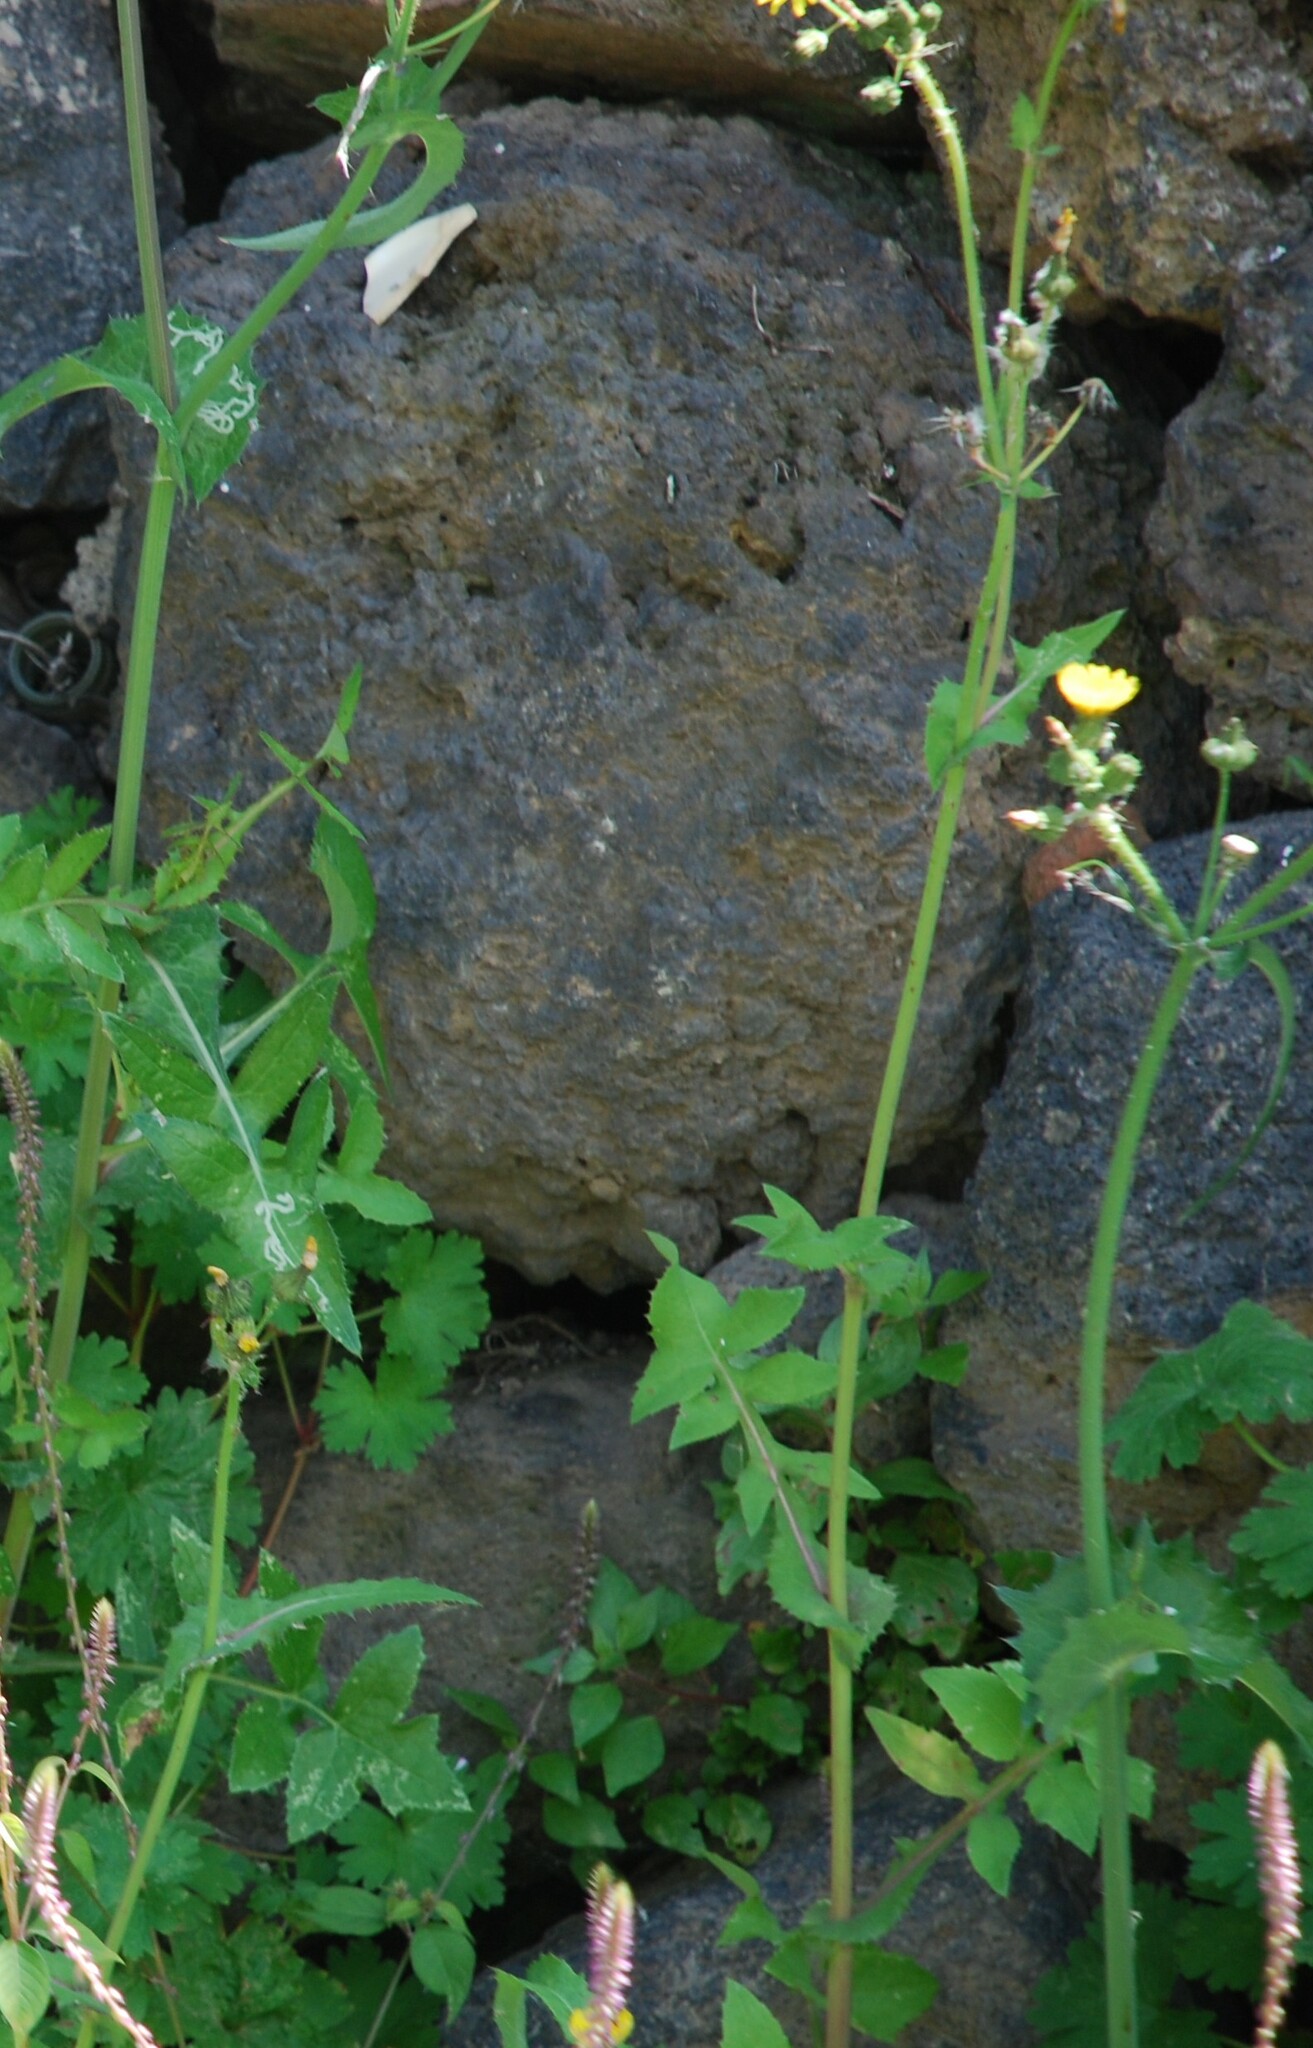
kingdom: Plantae
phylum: Tracheophyta
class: Magnoliopsida
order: Asterales
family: Asteraceae
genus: Sonchus
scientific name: Sonchus oleraceus
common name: Common sowthistle
